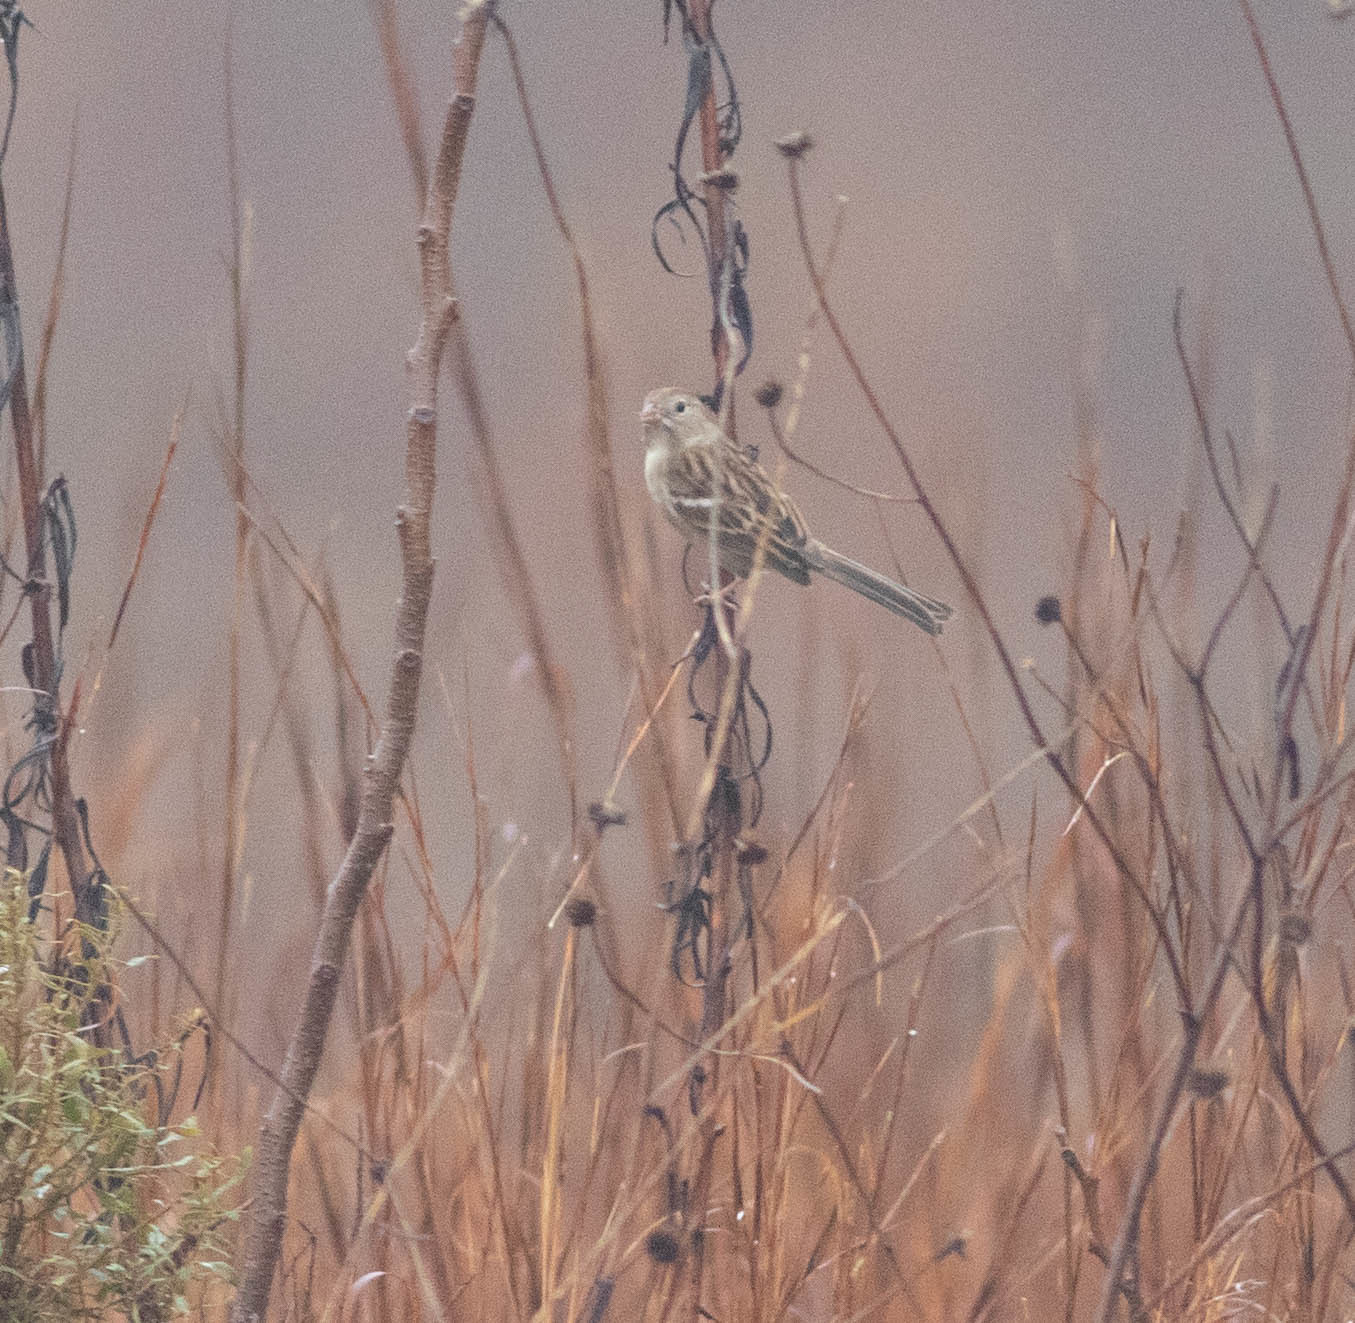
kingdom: Animalia
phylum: Chordata
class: Aves
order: Passeriformes
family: Passerellidae
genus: Spizella
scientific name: Spizella pusilla
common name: Field sparrow
